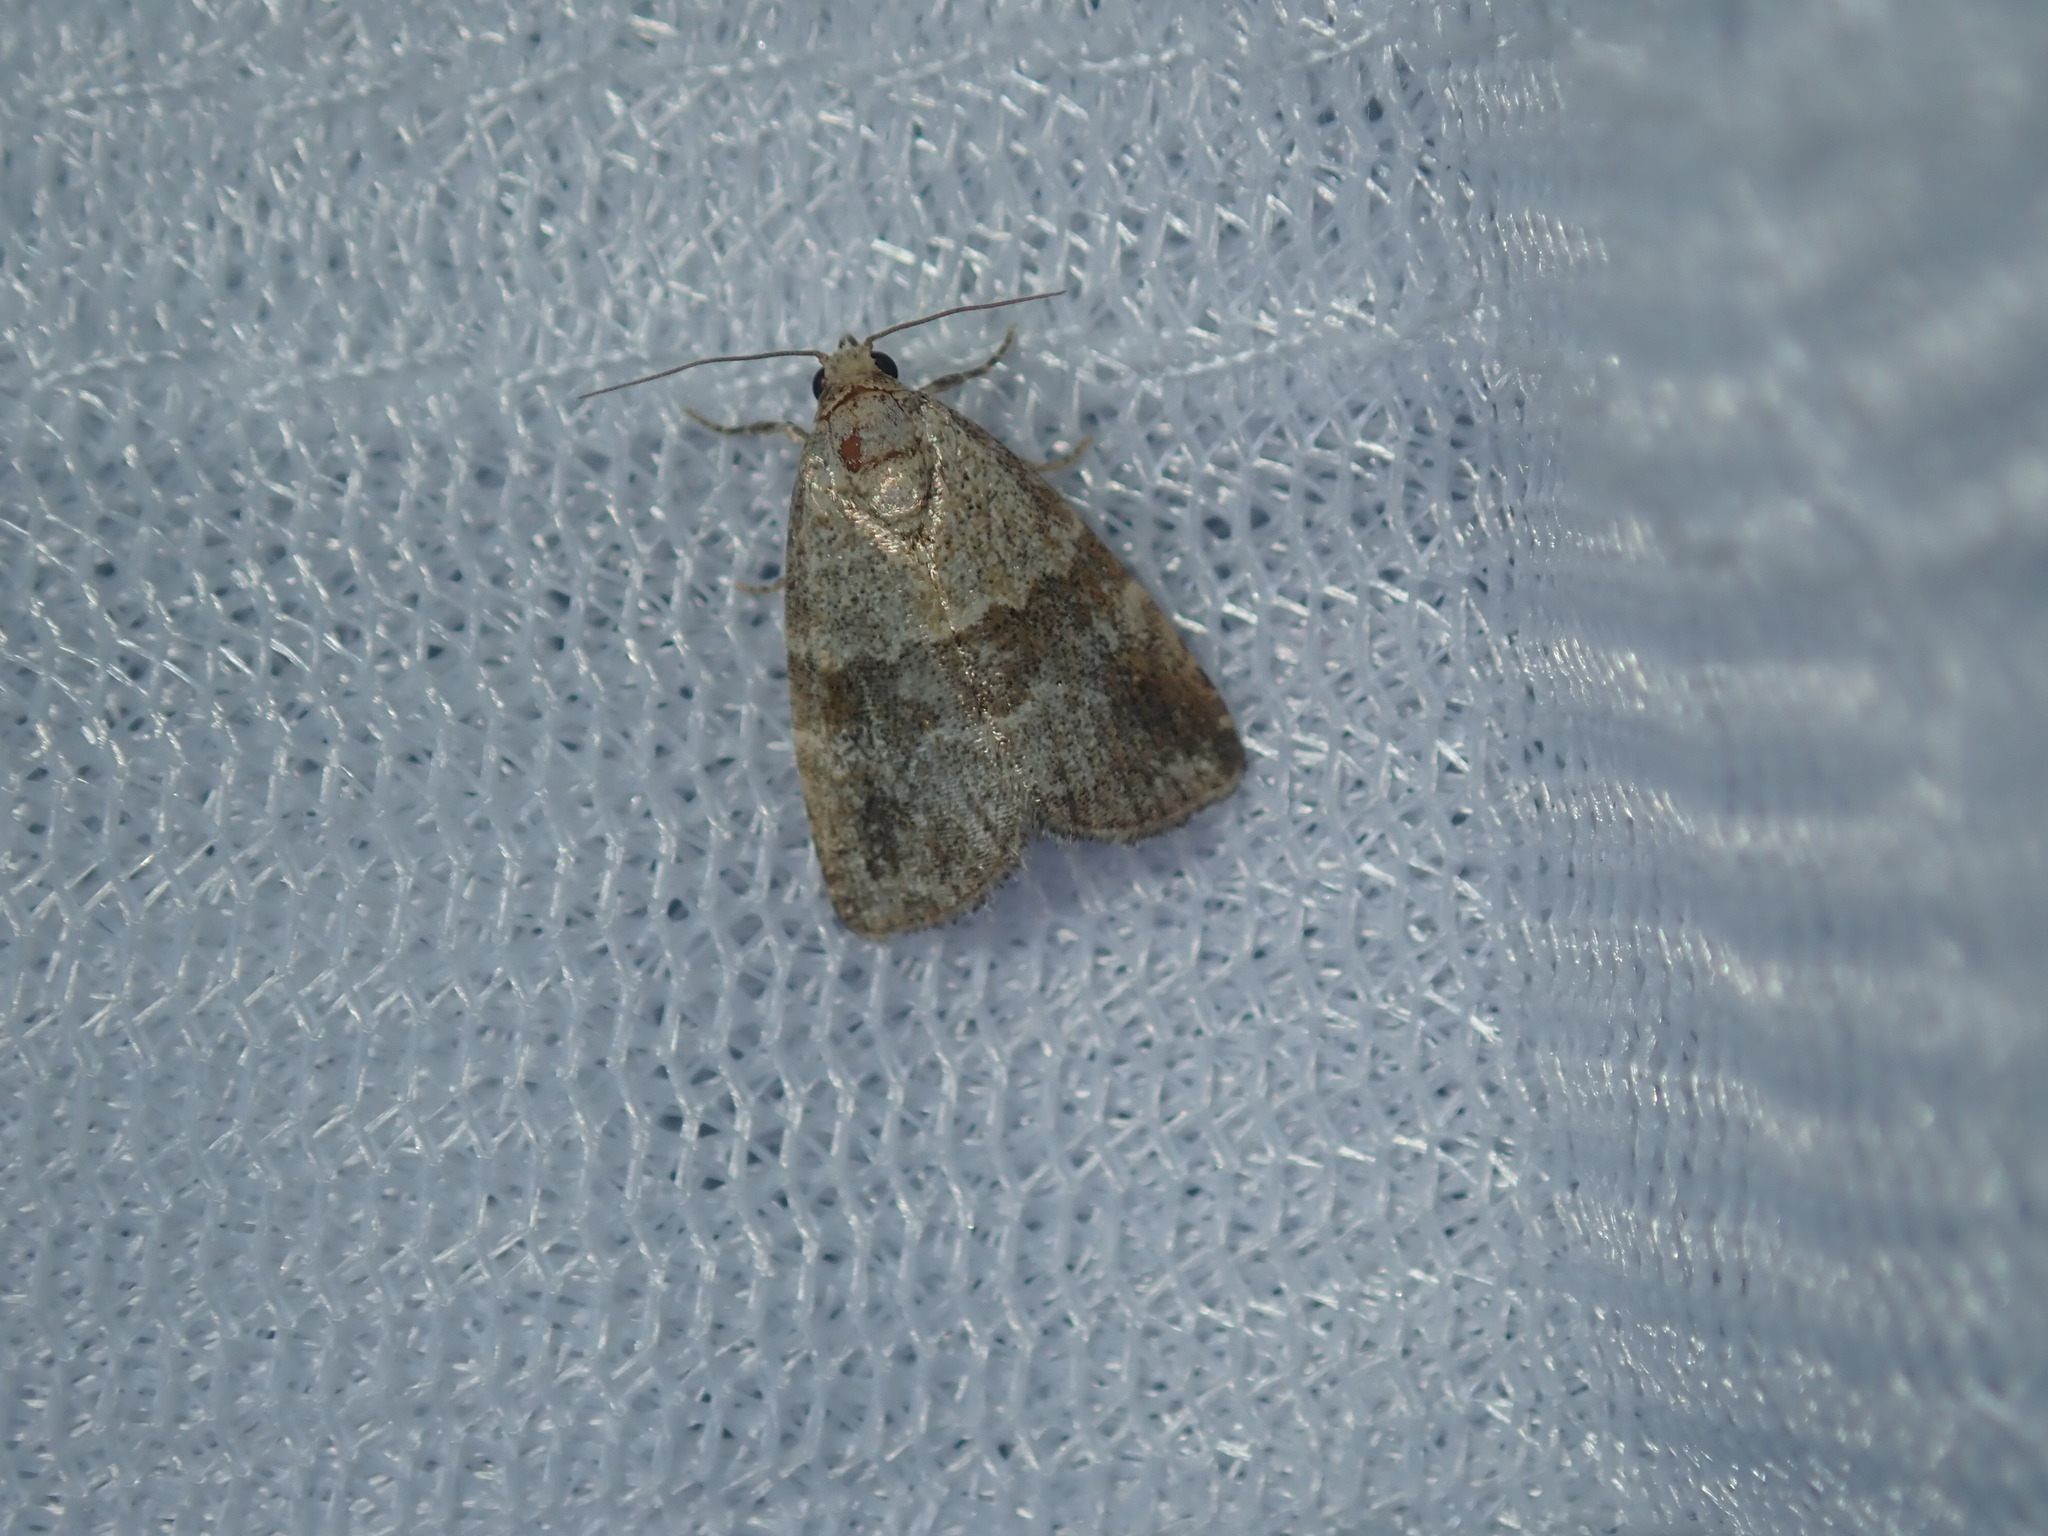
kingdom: Animalia
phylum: Arthropoda
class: Insecta
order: Lepidoptera
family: Noctuidae
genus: Maliattha
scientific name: Maliattha amorpha
